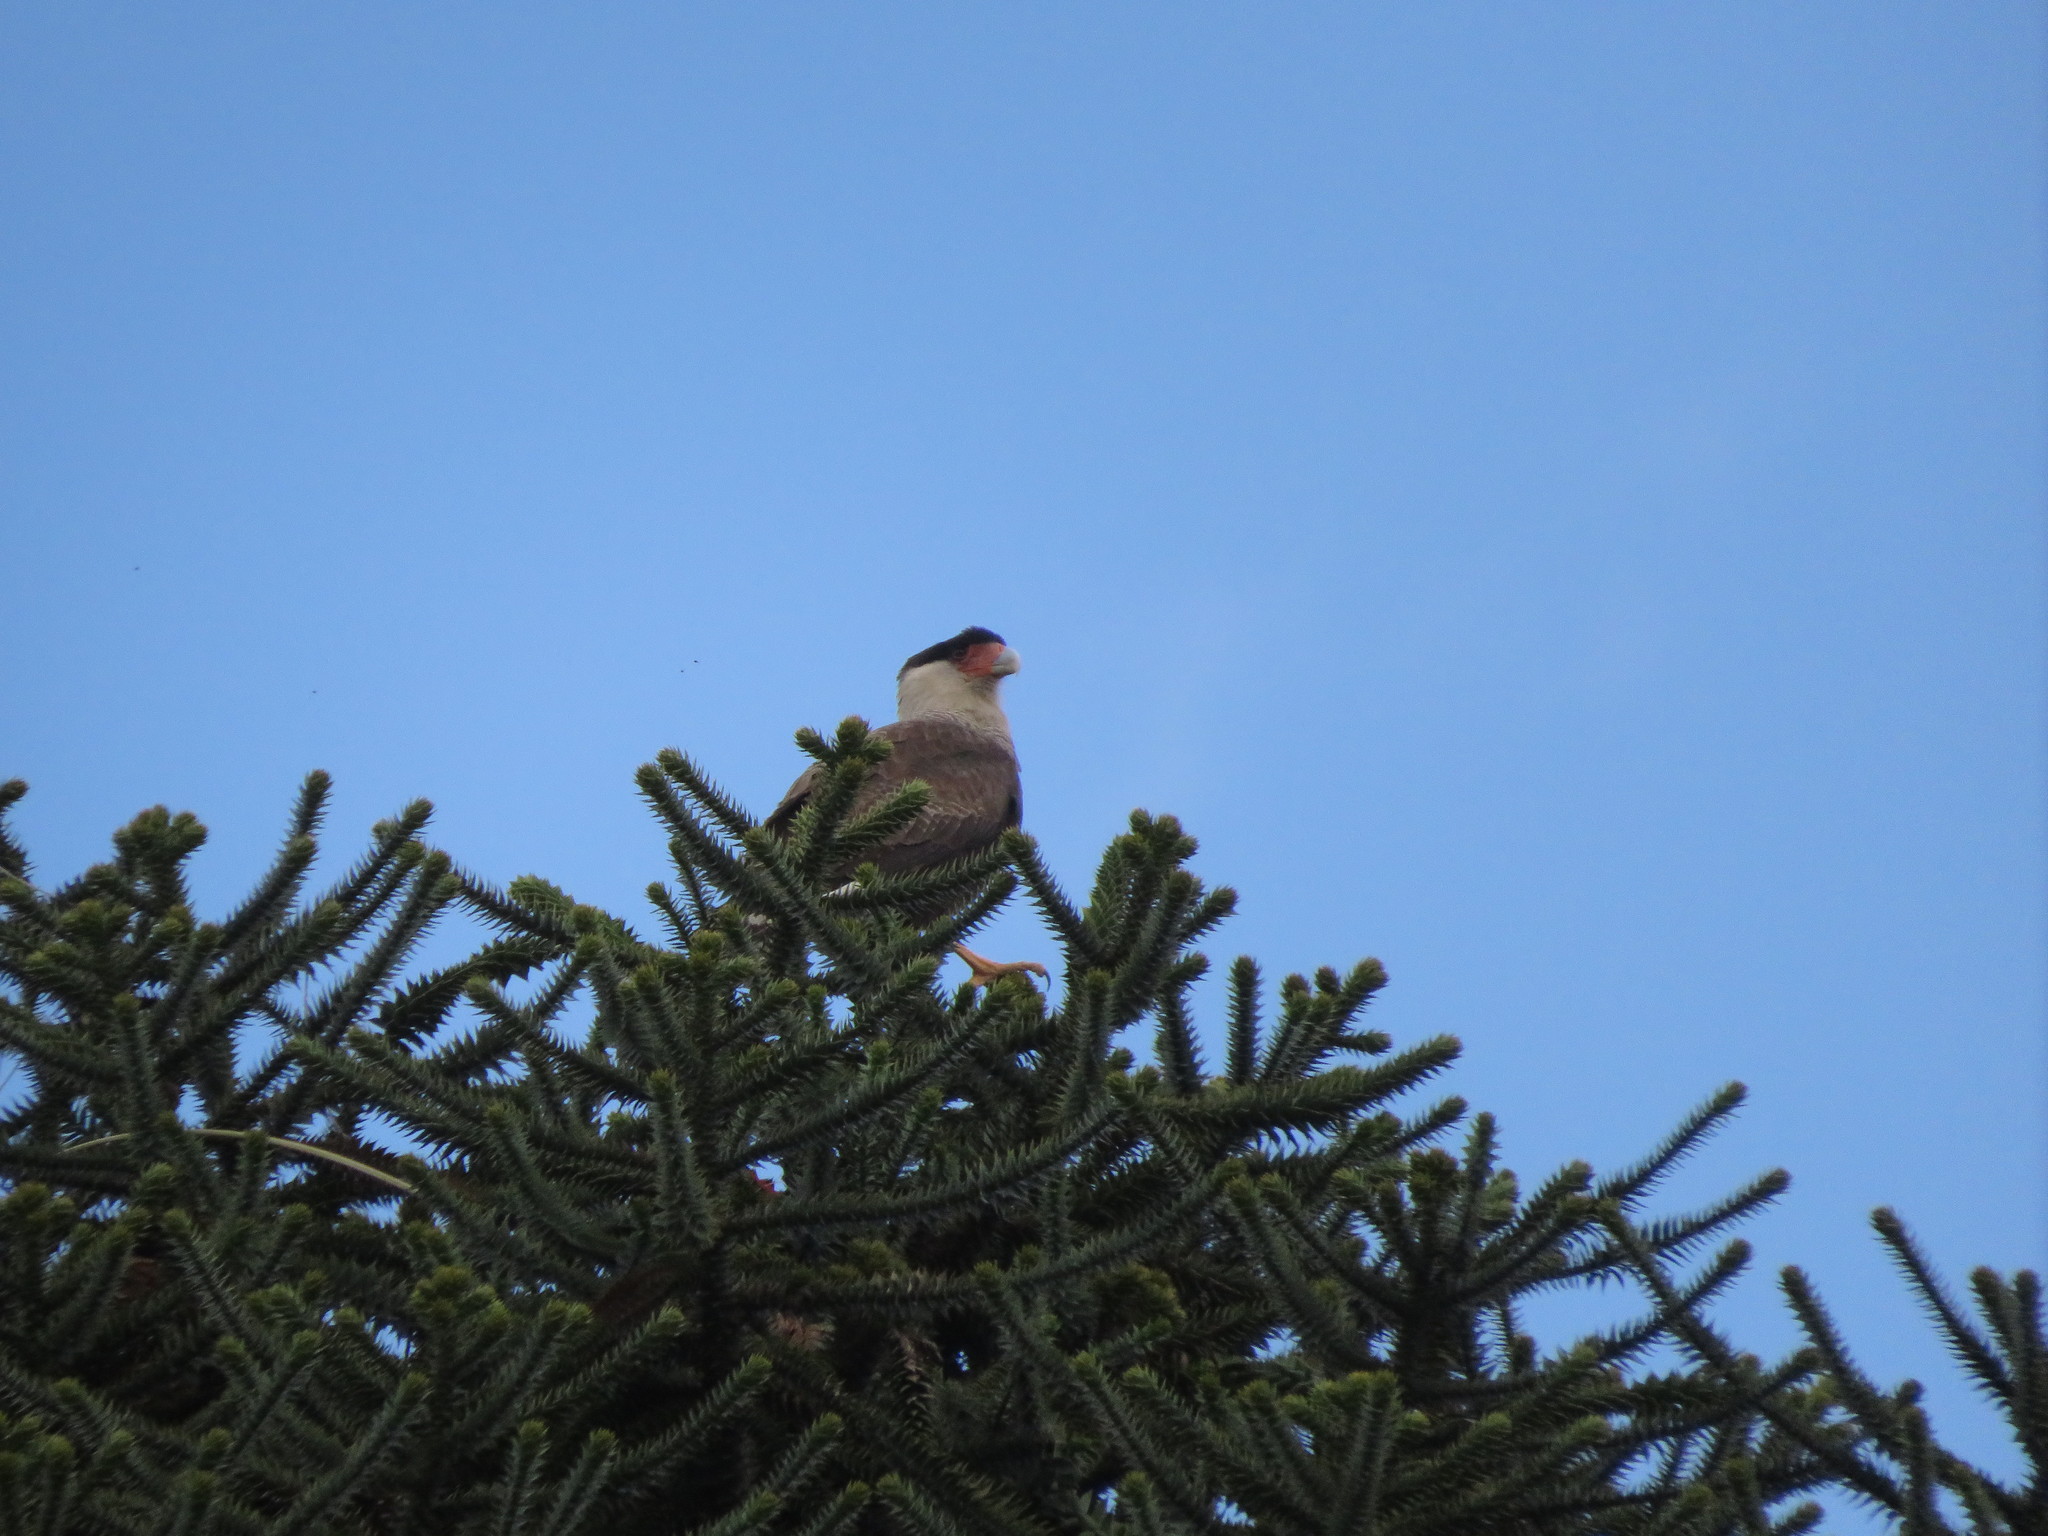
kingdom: Animalia
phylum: Chordata
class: Aves
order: Falconiformes
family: Falconidae
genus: Caracara
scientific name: Caracara plancus
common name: Southern caracara
